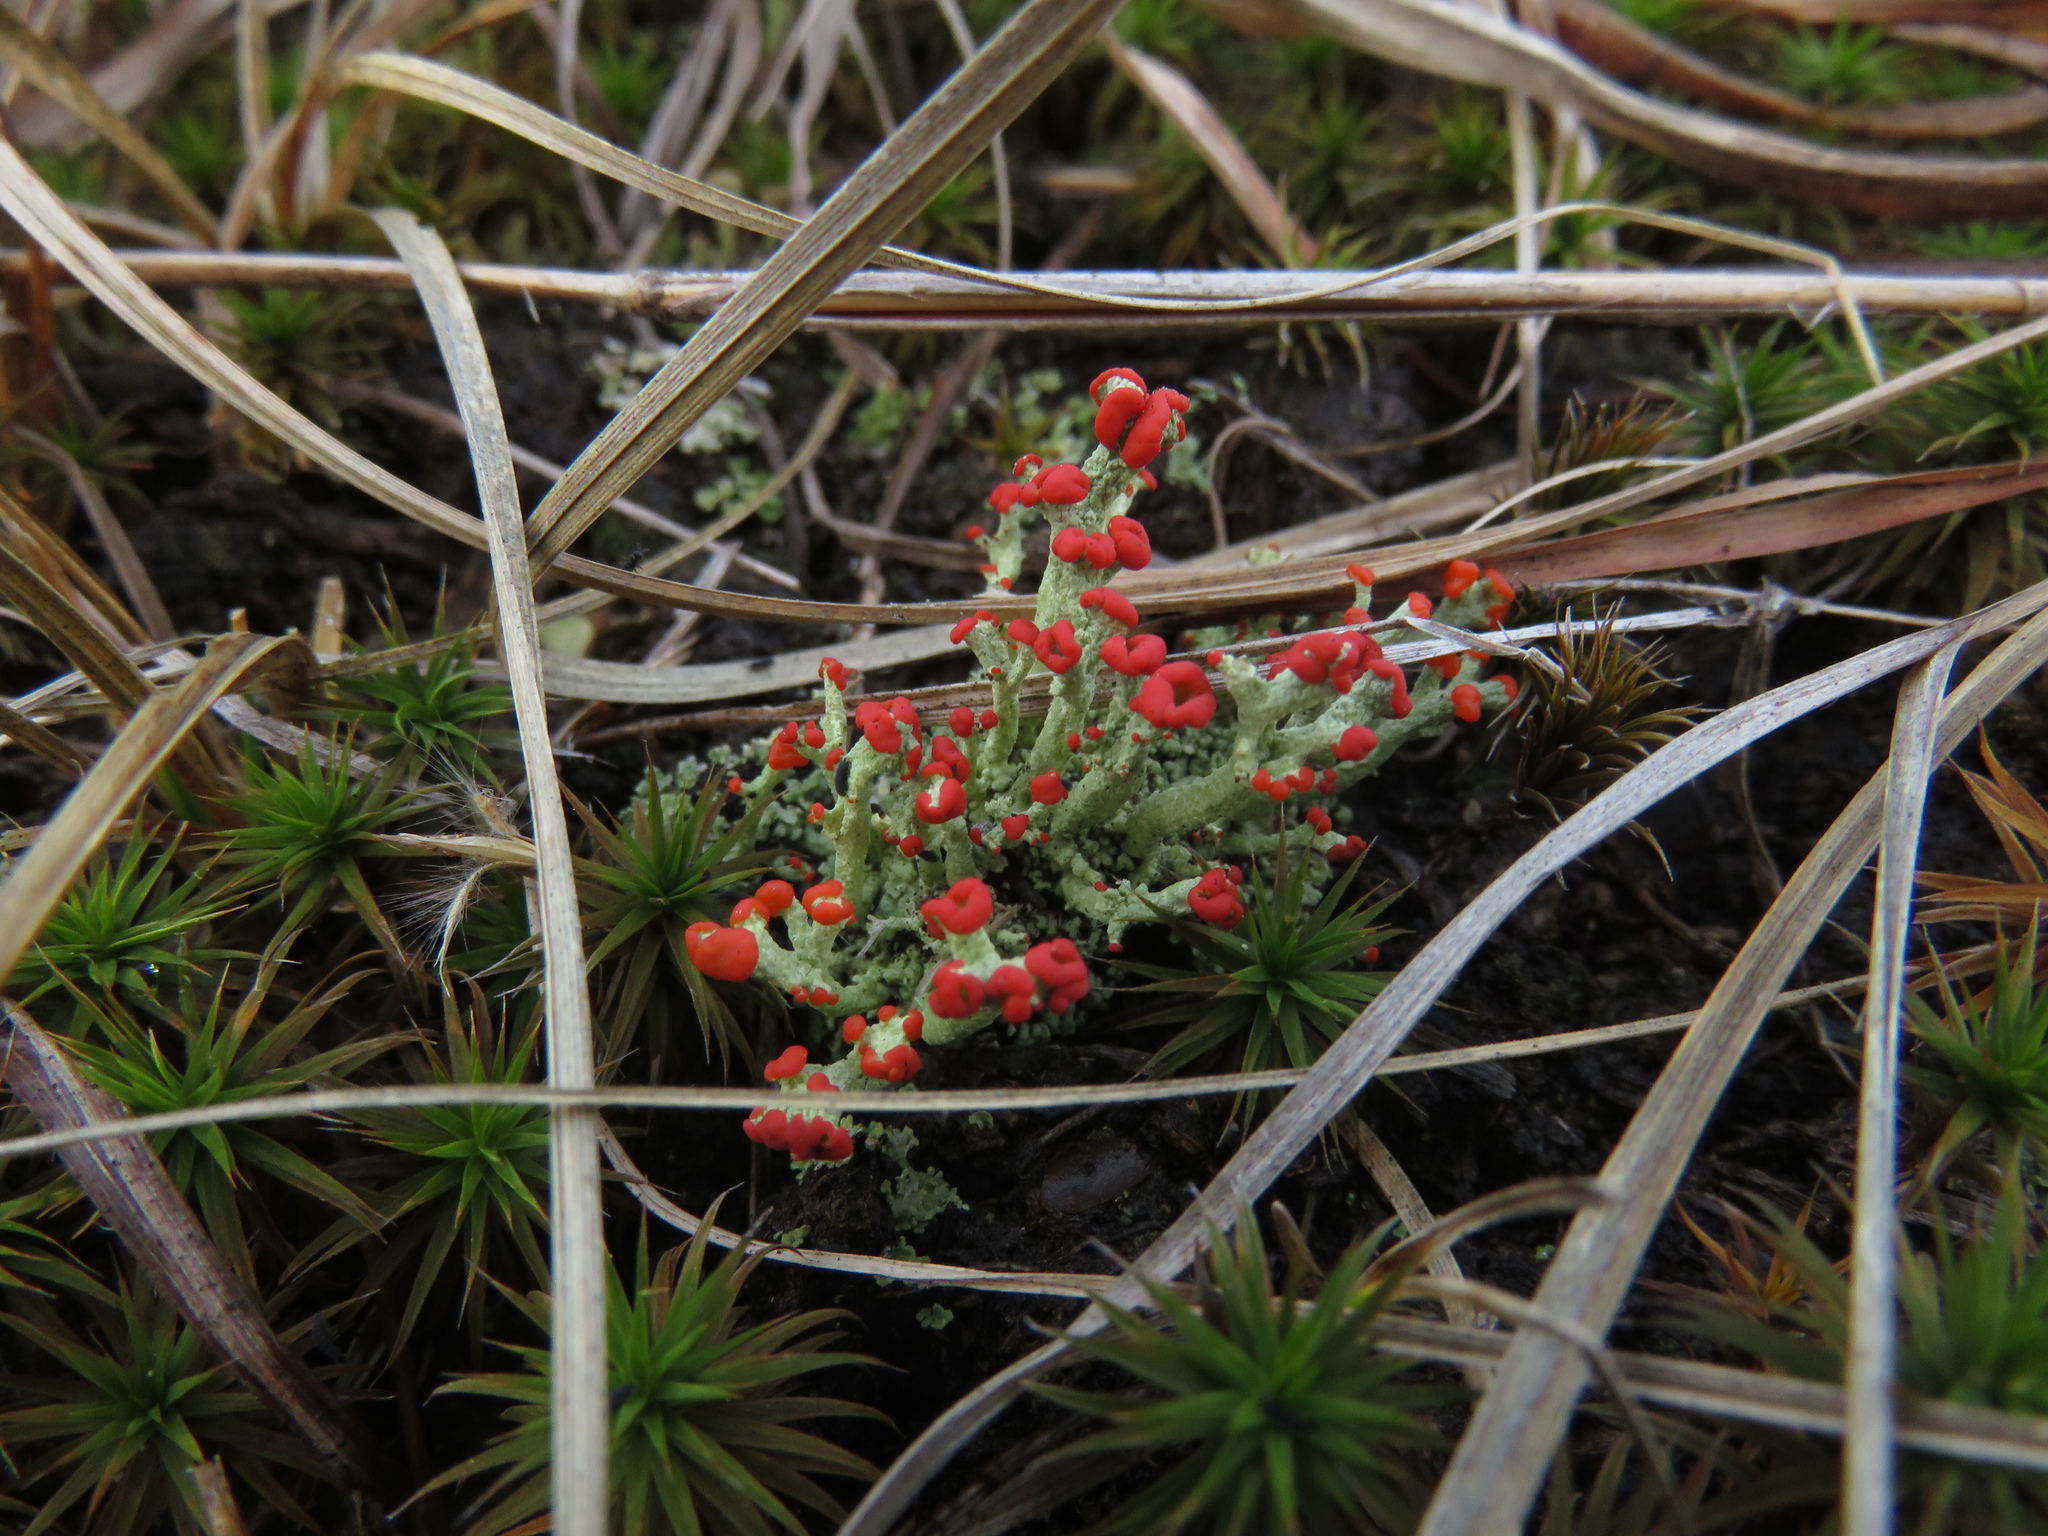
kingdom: Fungi
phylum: Ascomycota
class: Lecanoromycetes
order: Lecanorales
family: Cladoniaceae
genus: Cladonia
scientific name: Cladonia cristatella
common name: British soldier lichen
